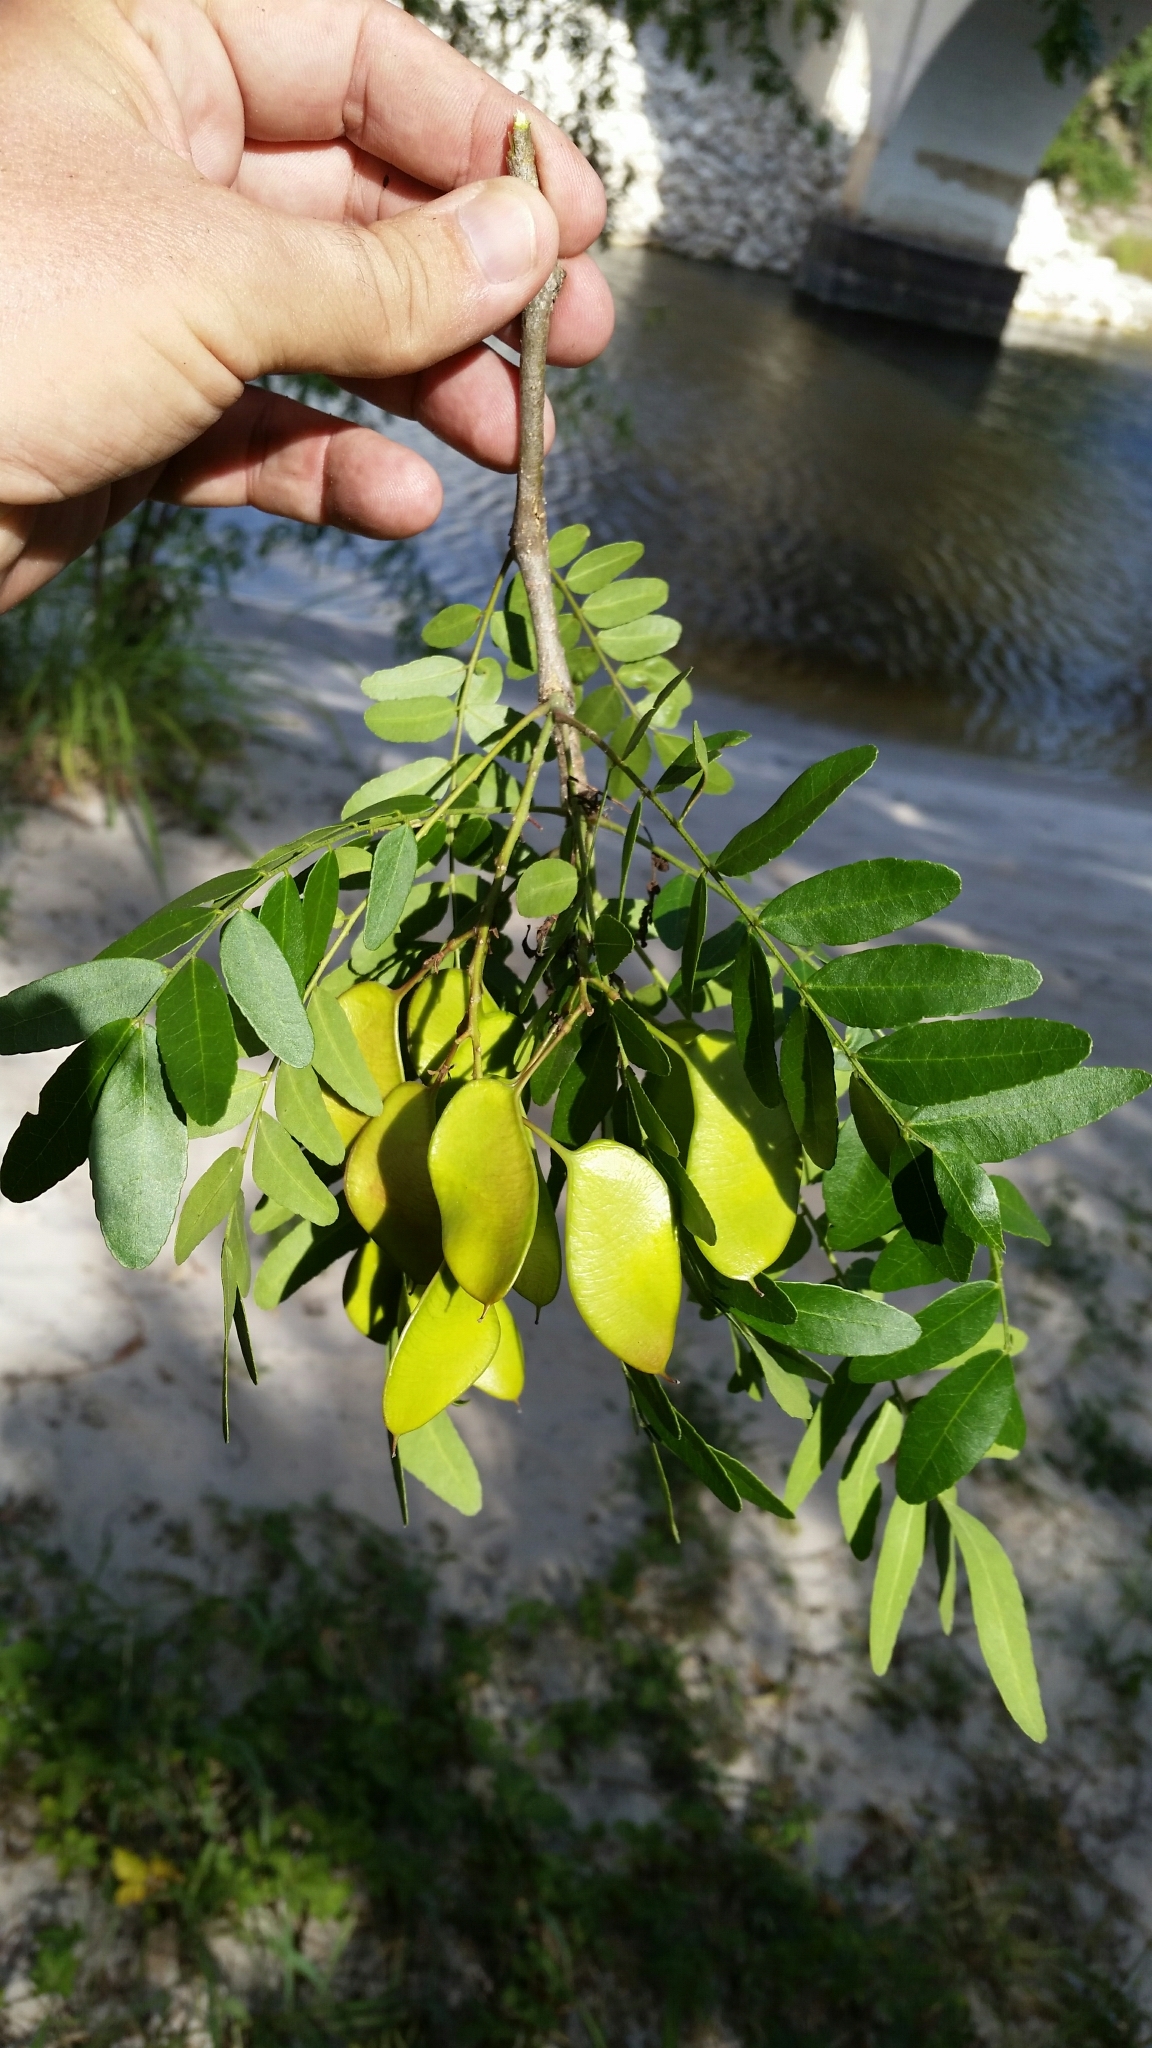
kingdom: Plantae
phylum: Tracheophyta
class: Magnoliopsida
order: Fabales
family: Fabaceae
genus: Gleditsia
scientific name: Gleditsia aquatica
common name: Swamp-locust
